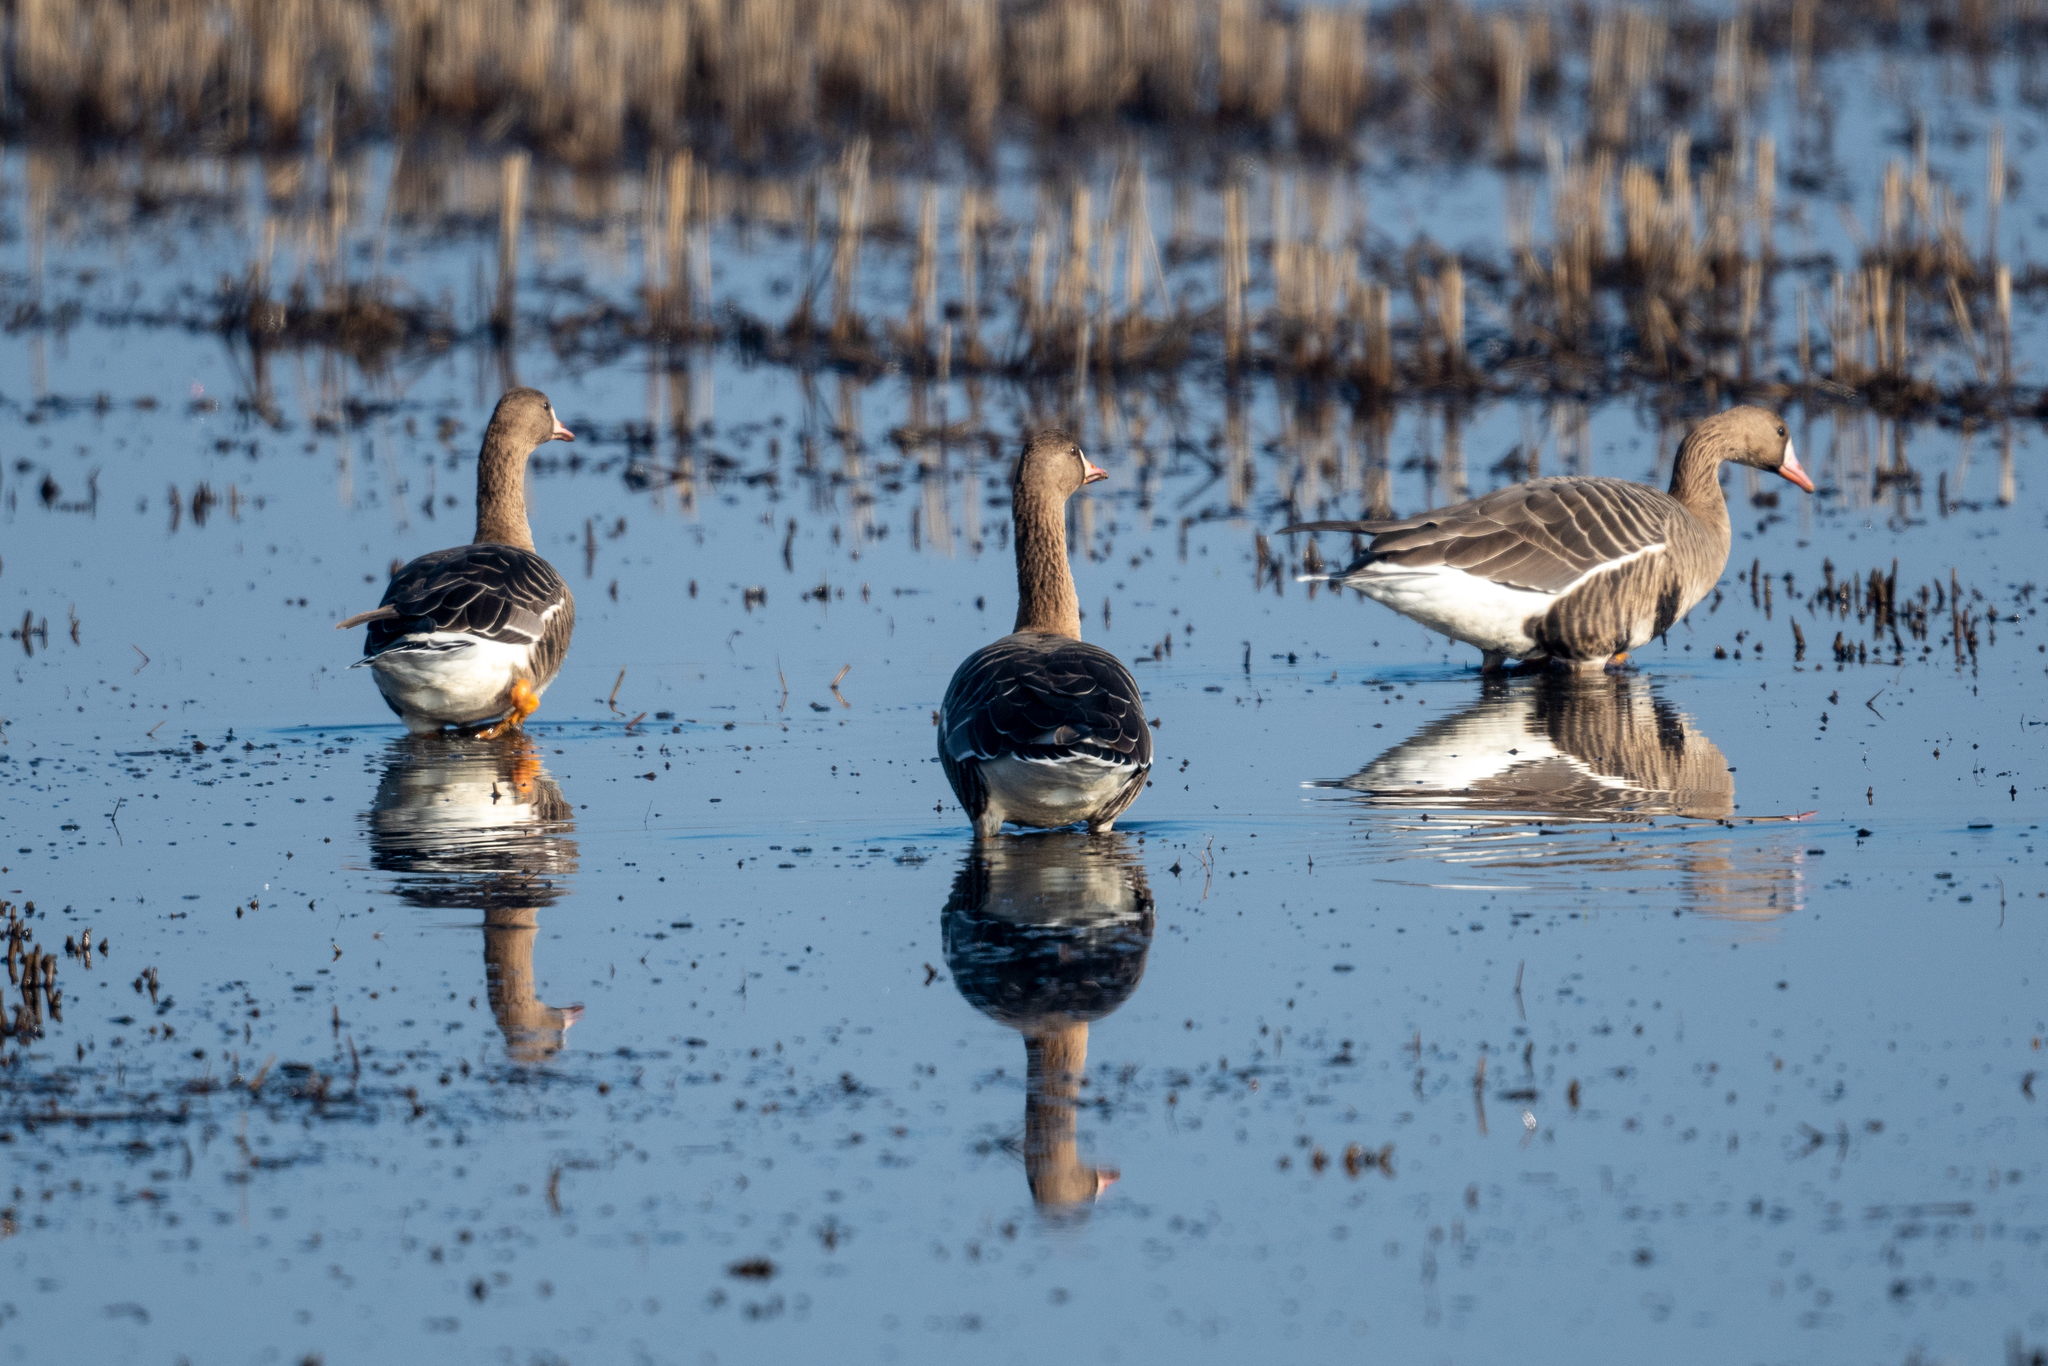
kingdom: Animalia
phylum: Chordata
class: Aves
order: Anseriformes
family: Anatidae
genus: Anser
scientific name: Anser albifrons
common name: Greater white-fronted goose
